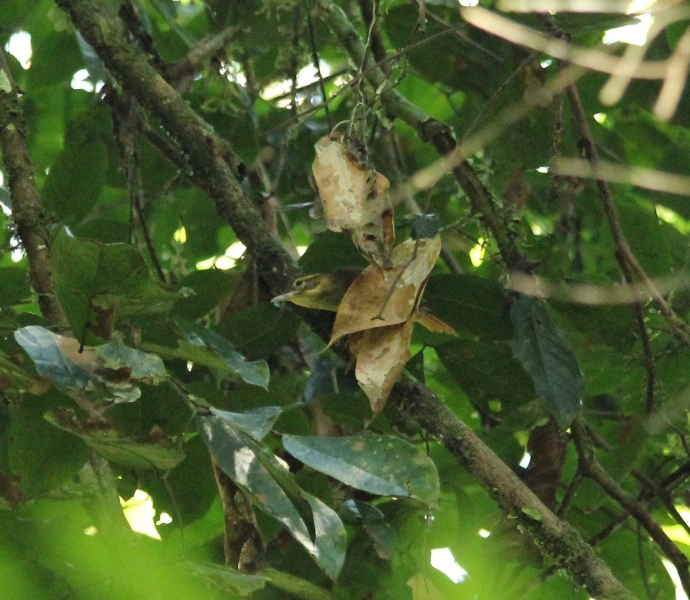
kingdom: Animalia
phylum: Chordata
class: Aves
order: Passeriformes
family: Furnariidae
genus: Philydor
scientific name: Philydor erythrocercum
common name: Rufous-rumped foliage-gleaner
